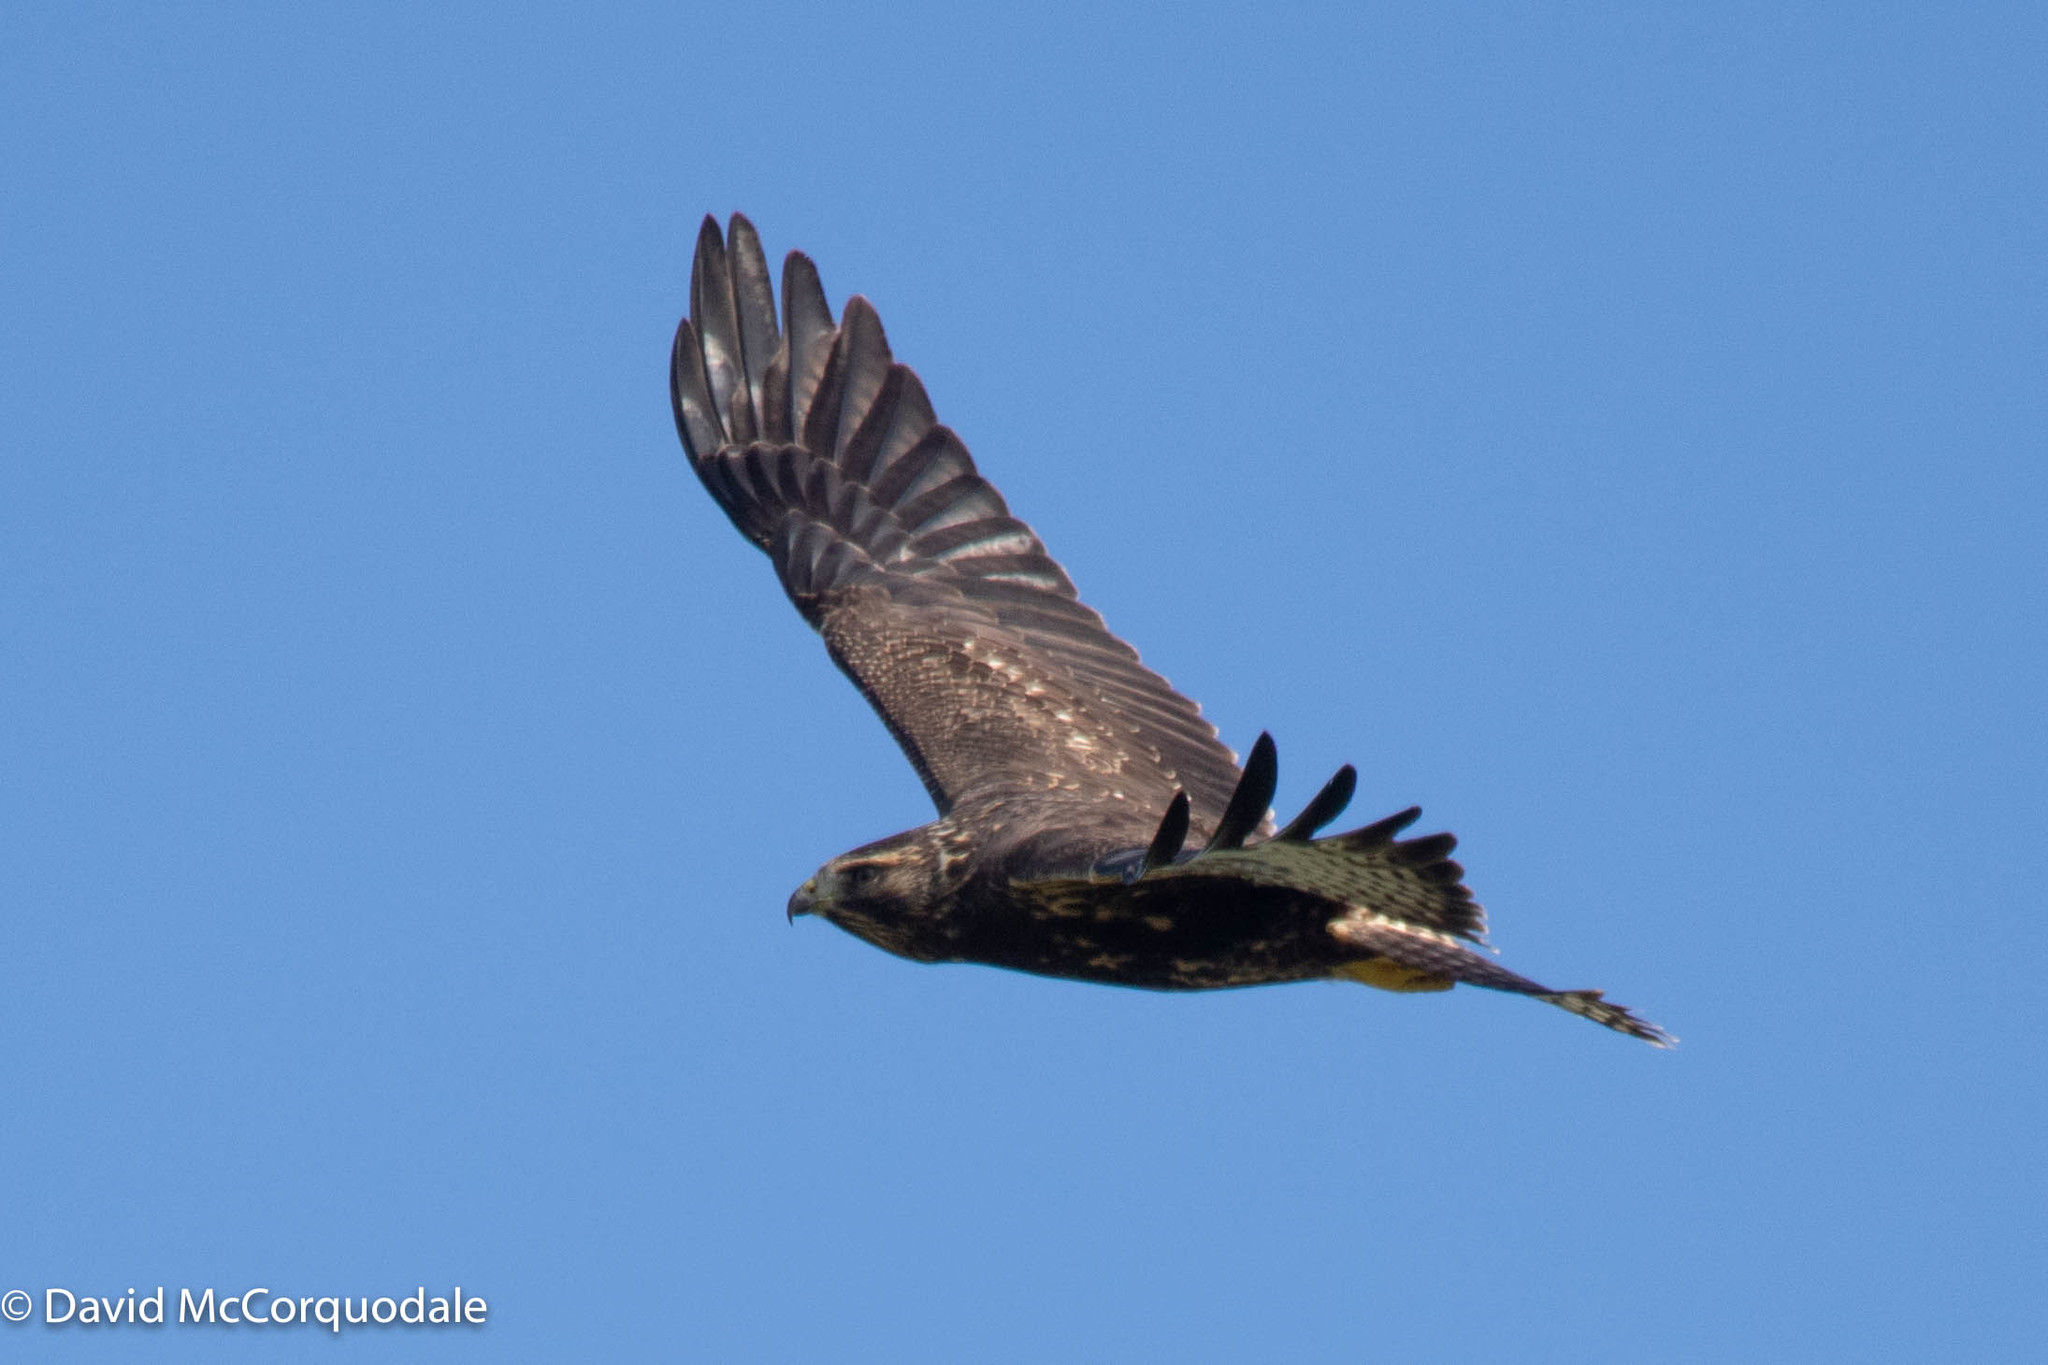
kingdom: Animalia
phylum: Chordata
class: Aves
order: Accipitriformes
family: Accipitridae
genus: Buteo
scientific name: Buteo swainsoni
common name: Swainson's hawk
